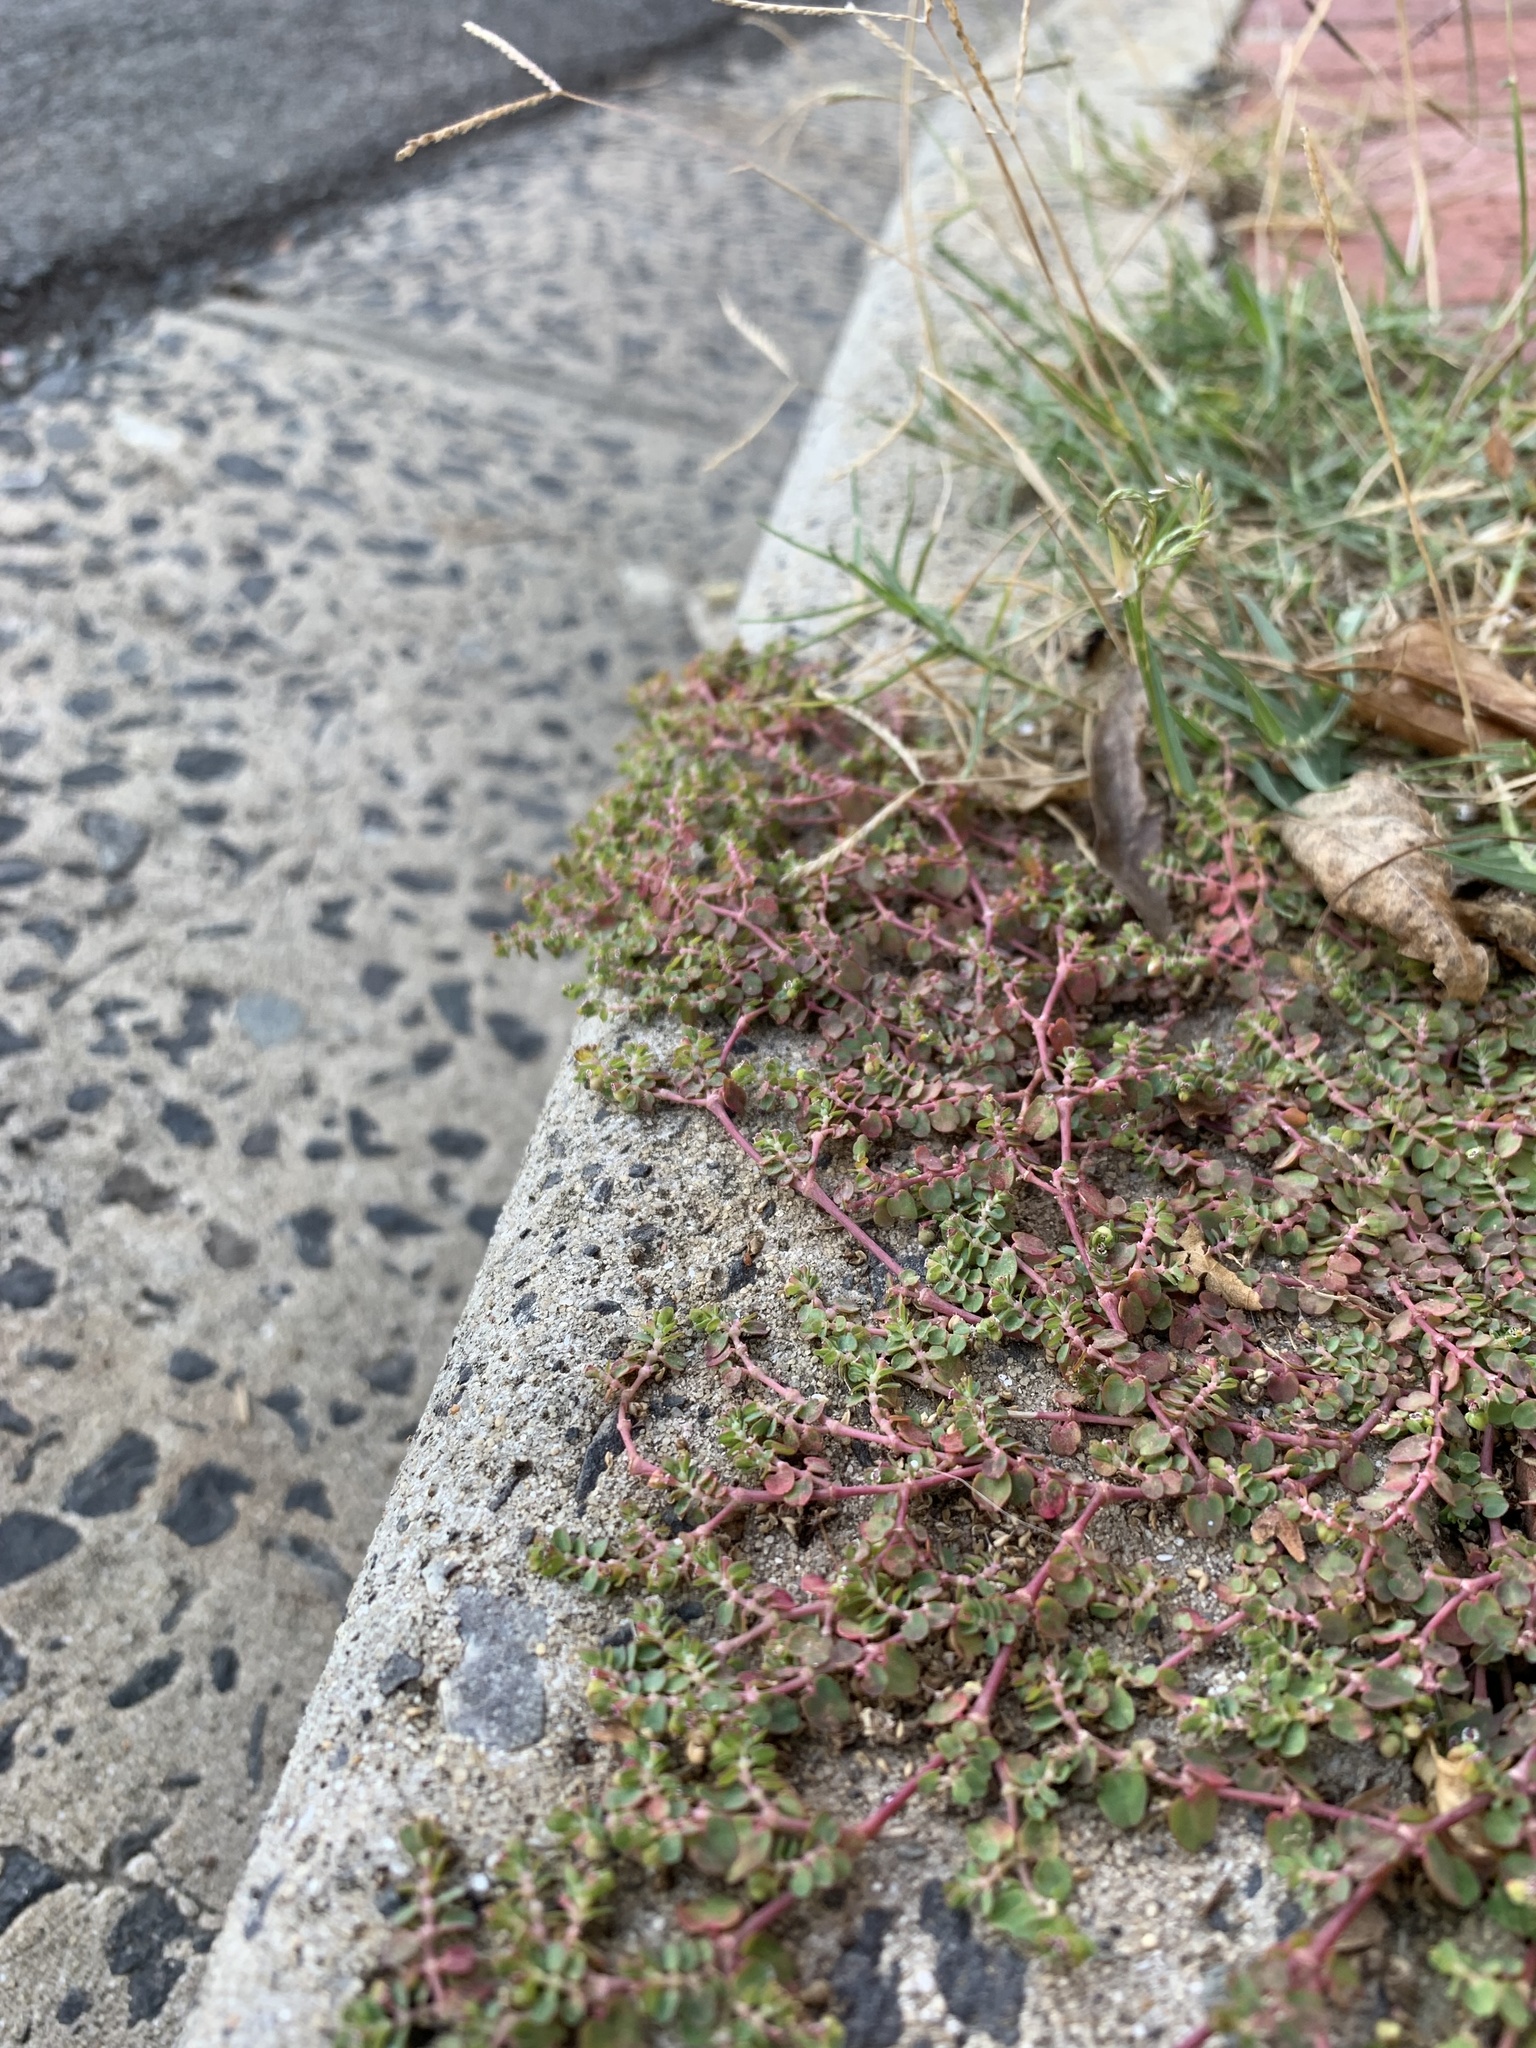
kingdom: Plantae
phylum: Tracheophyta
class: Magnoliopsida
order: Malpighiales
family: Euphorbiaceae
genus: Euphorbia
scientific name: Euphorbia serpens
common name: Matted sandmat
